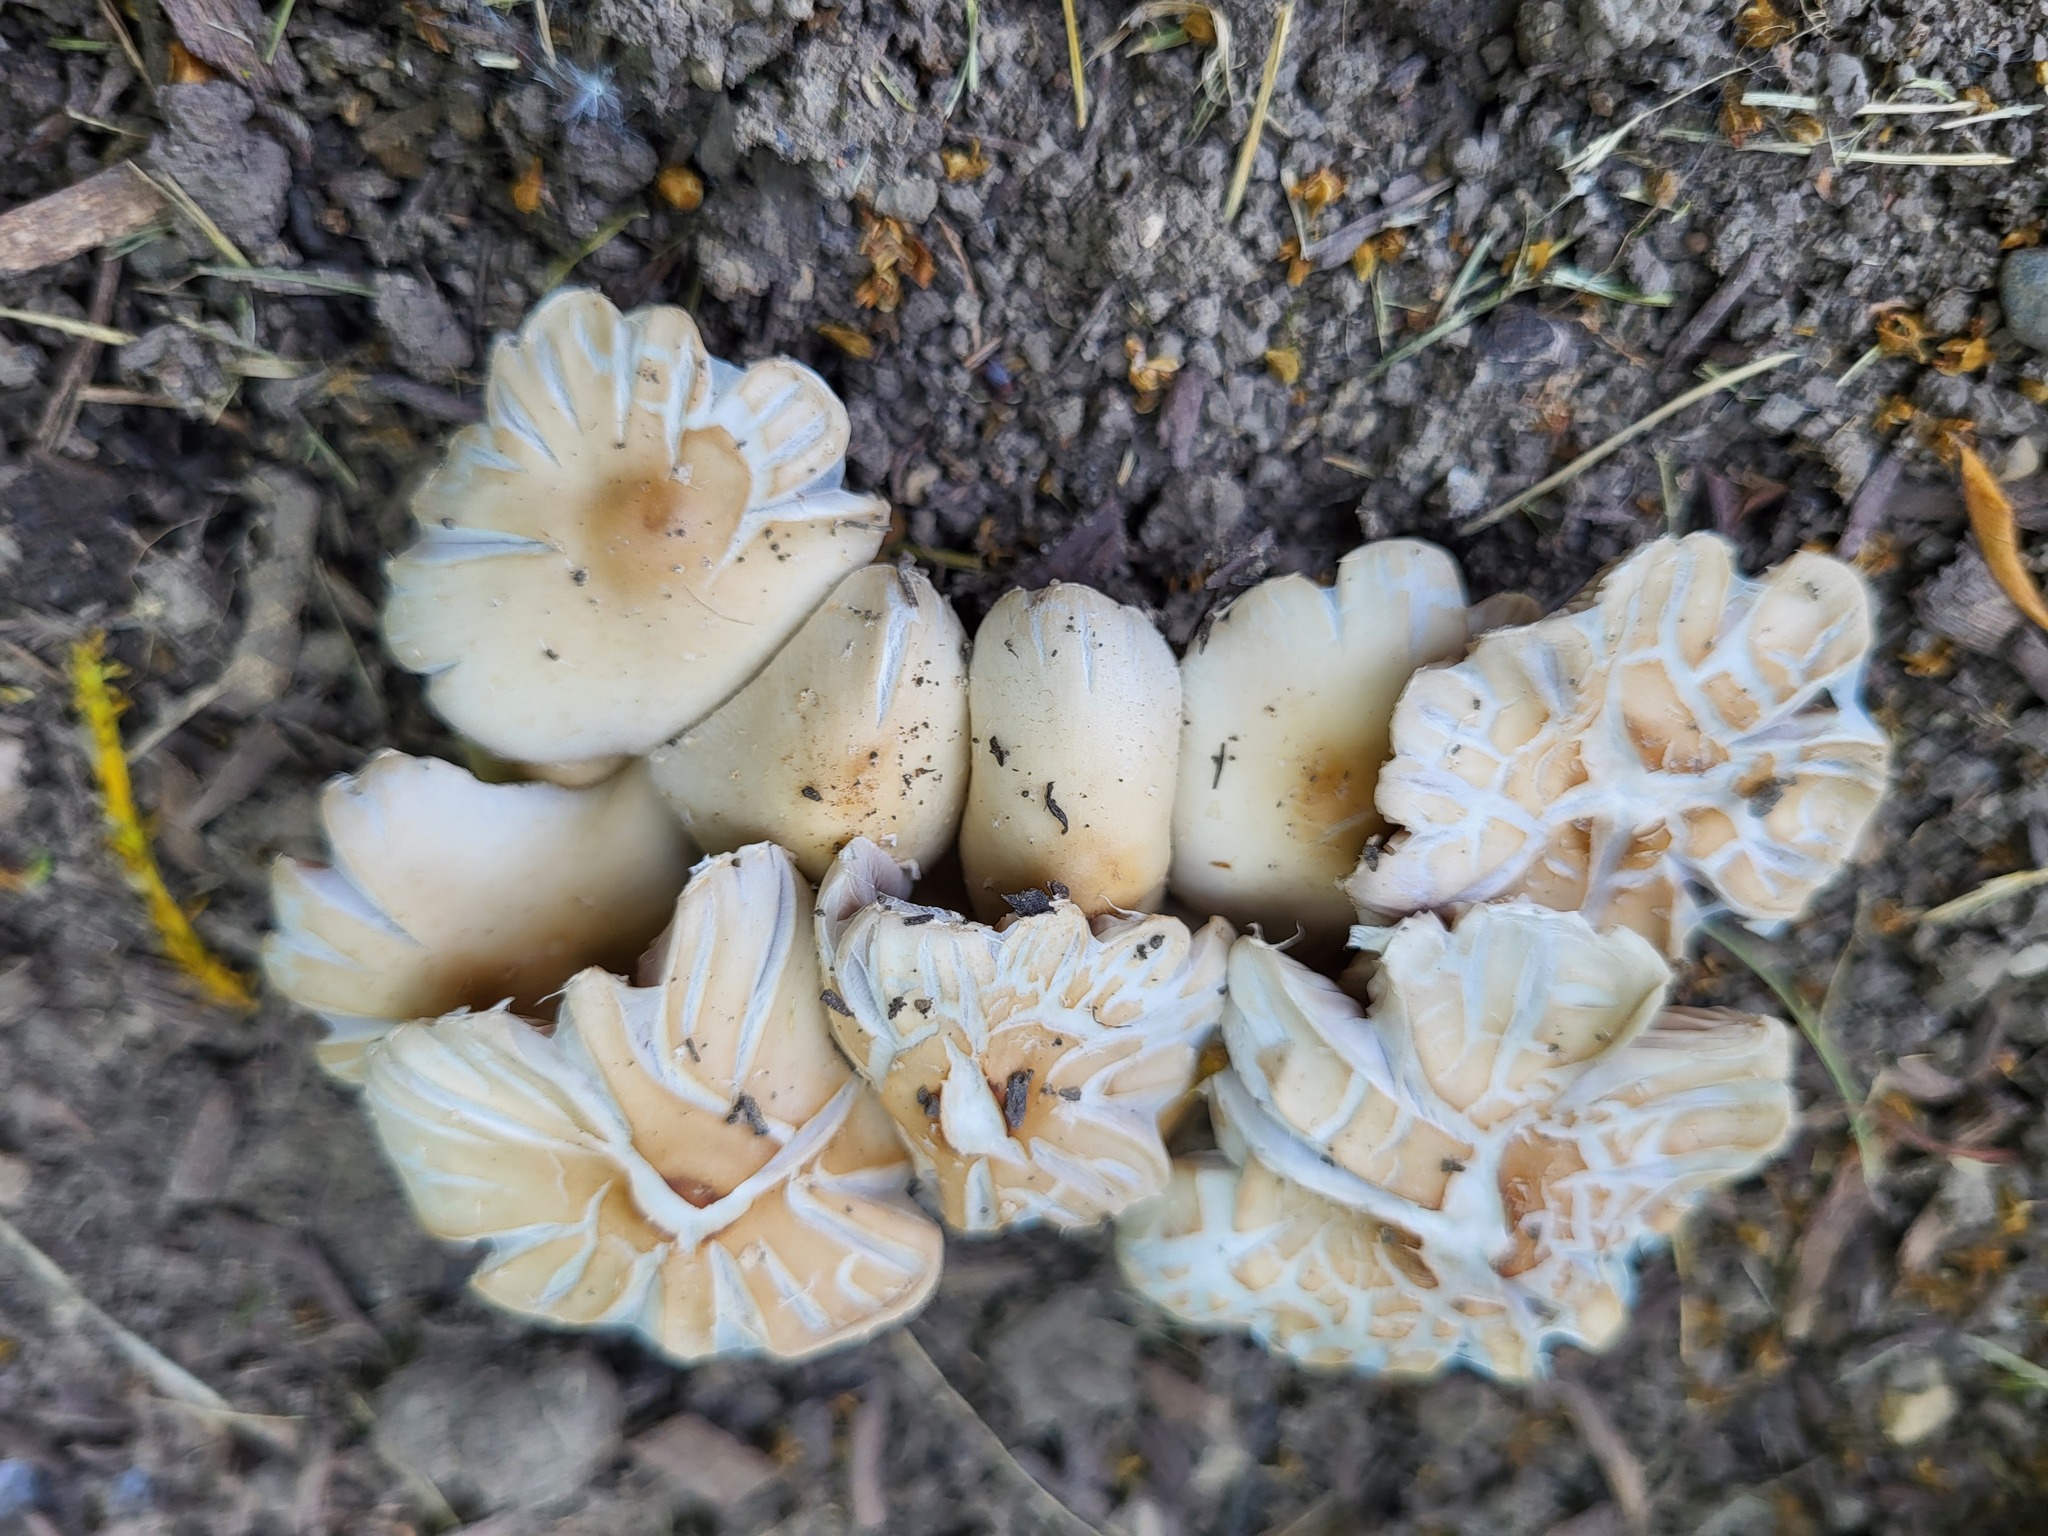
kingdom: Fungi
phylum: Basidiomycota
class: Agaricomycetes
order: Agaricales
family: Psathyrellaceae
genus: Candolleomyces
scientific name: Candolleomyces candolleanus
